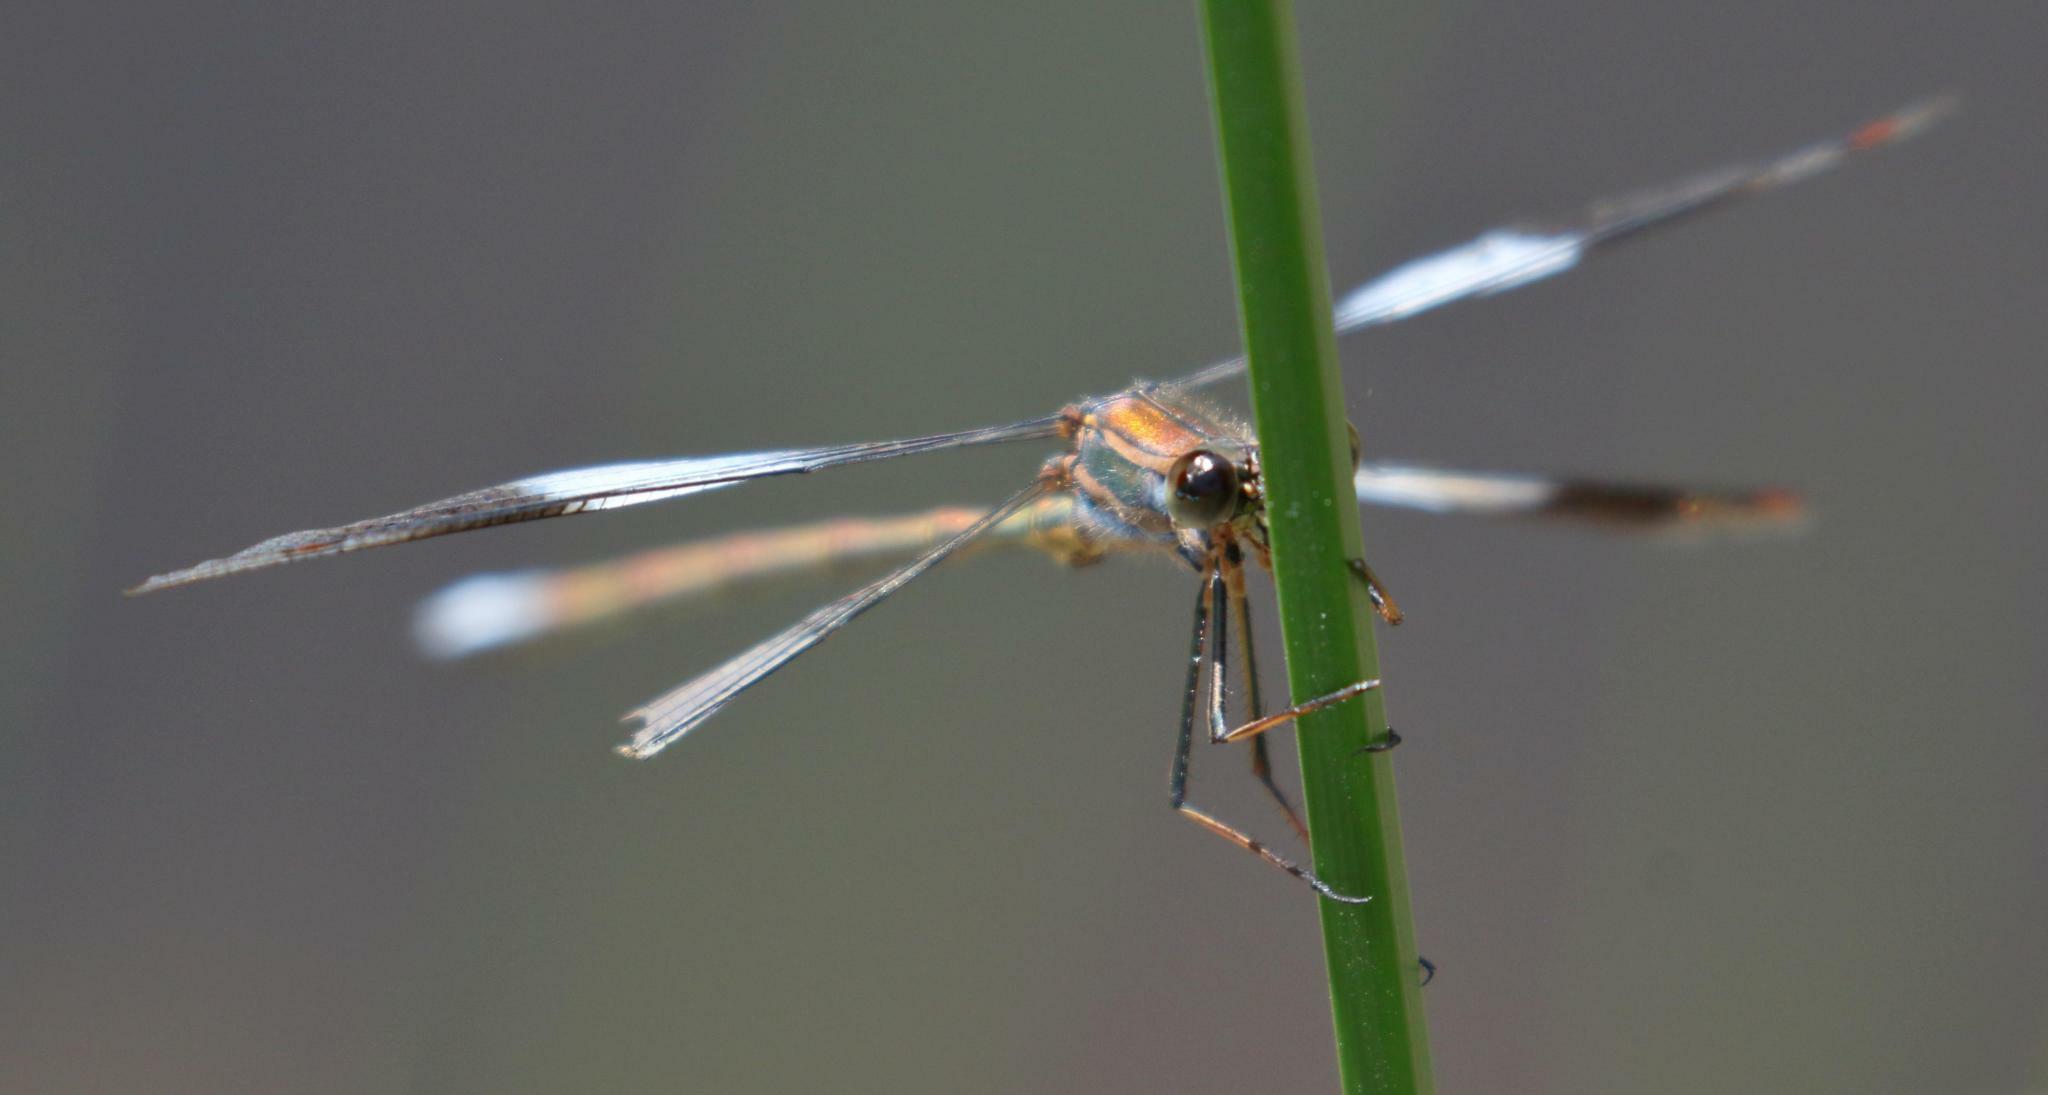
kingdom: Animalia
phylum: Arthropoda
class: Insecta
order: Odonata
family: Synlestidae
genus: Chlorolestes
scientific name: Chlorolestes fasciatus
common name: Mountain malachite
